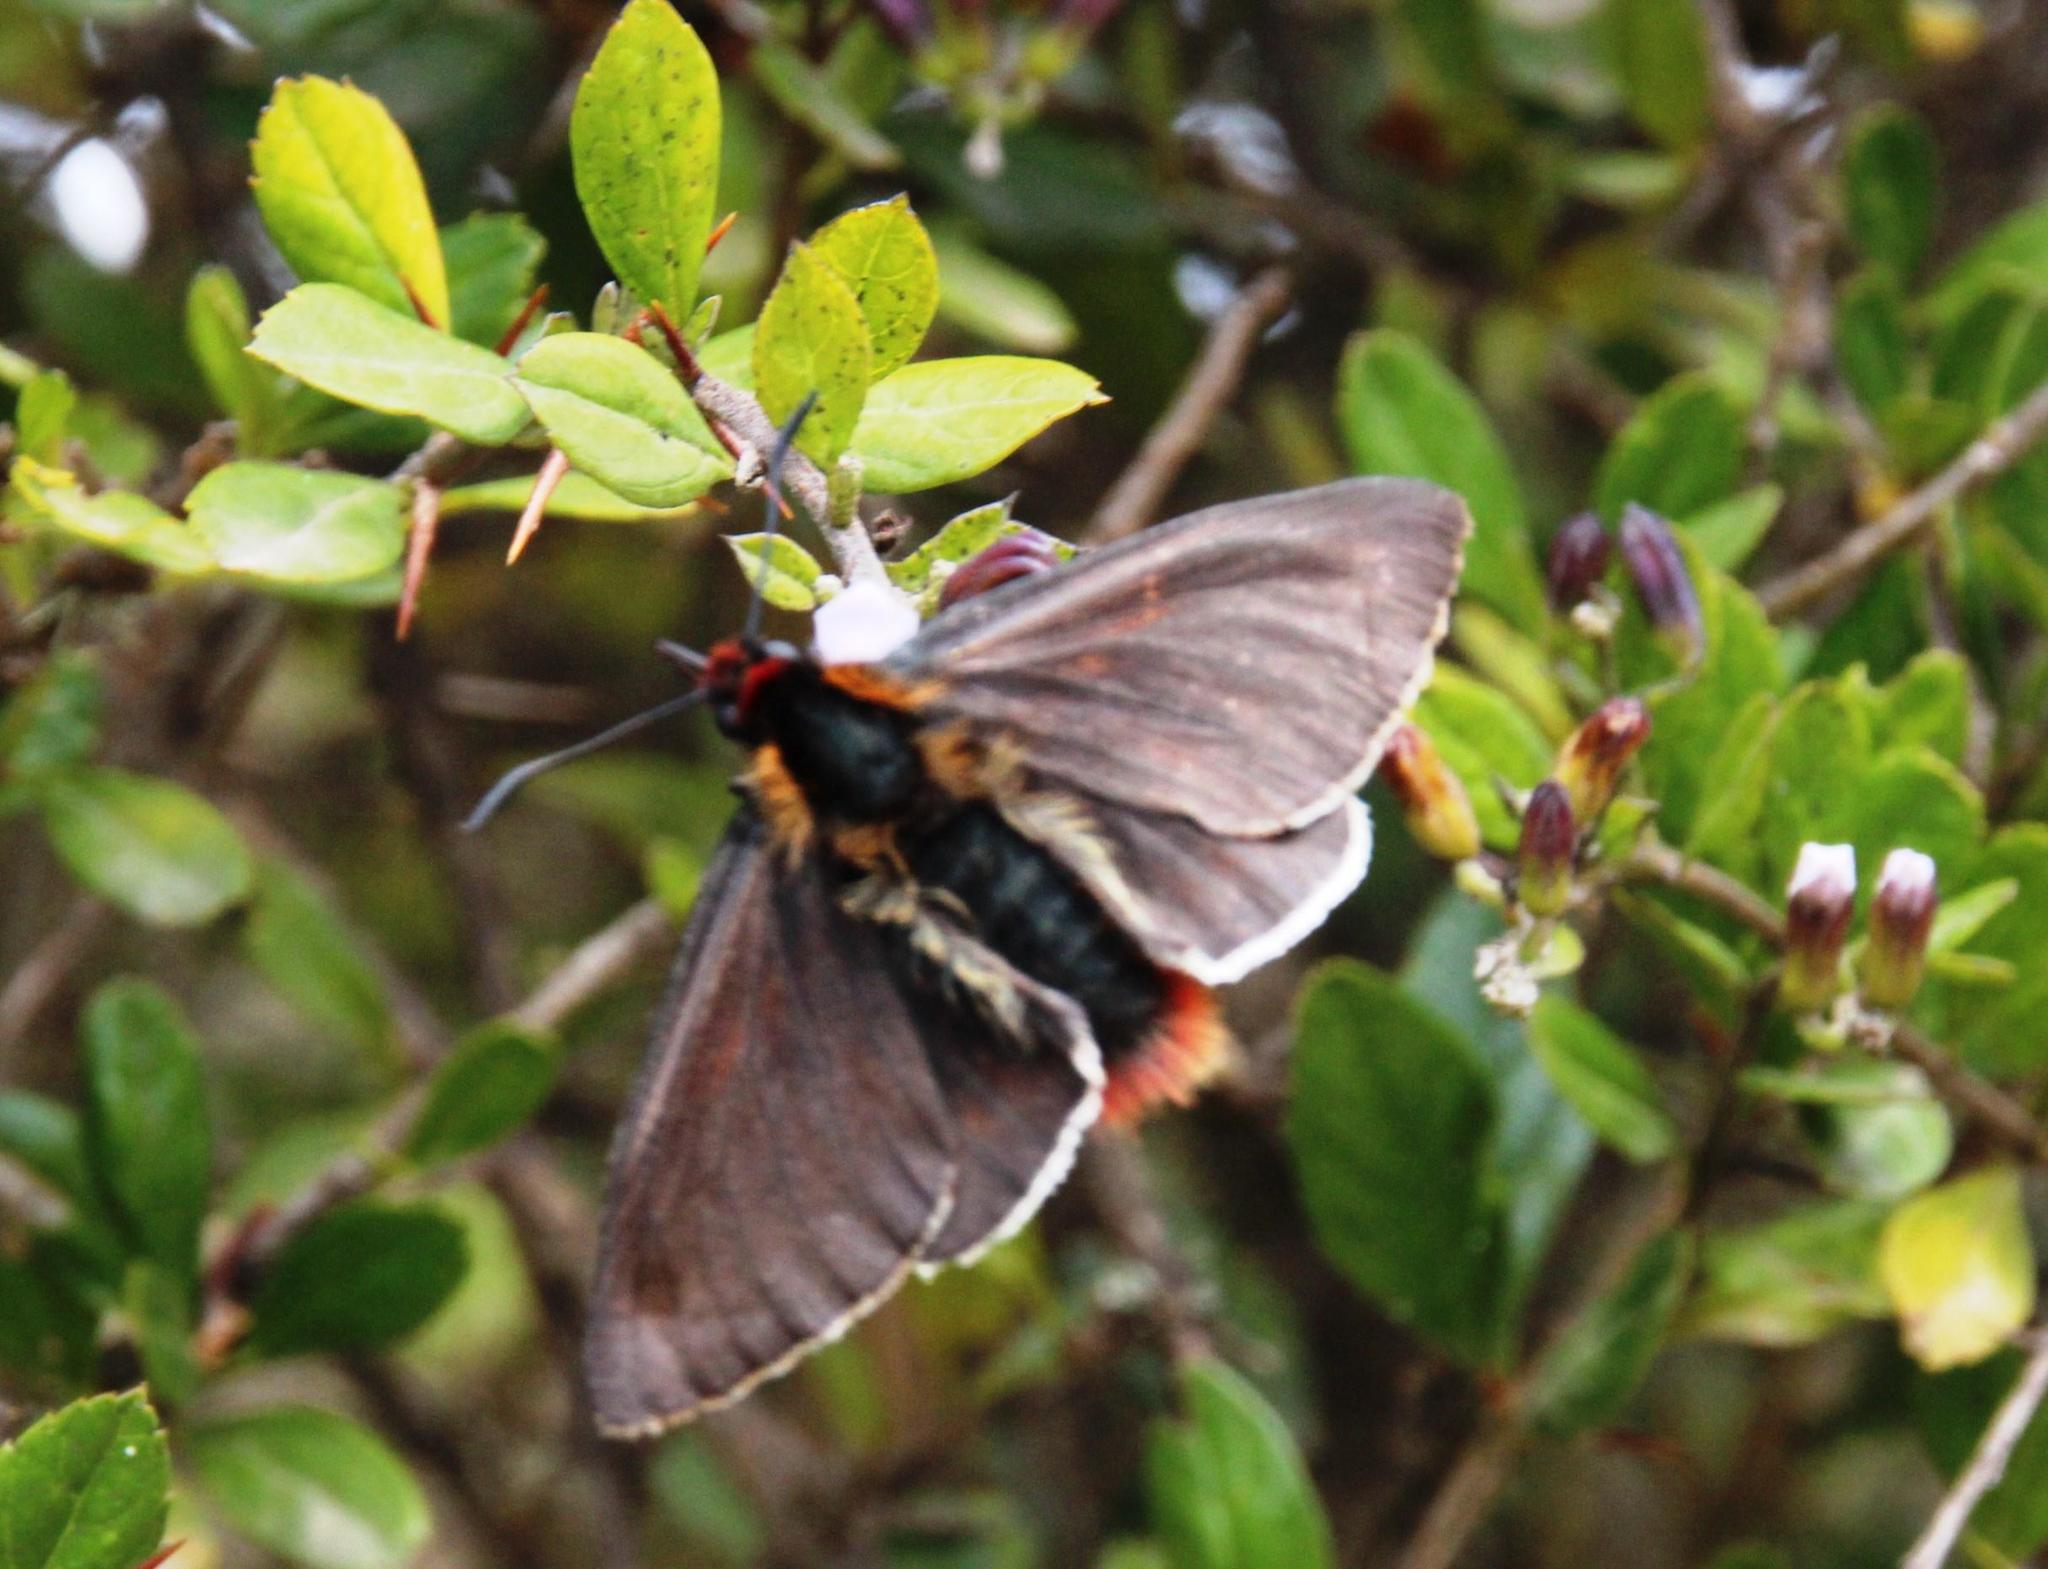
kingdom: Animalia
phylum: Arthropoda
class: Insecta
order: Lepidoptera
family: Hesperiidae
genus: Metardaris
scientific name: Metardaris cosinga
